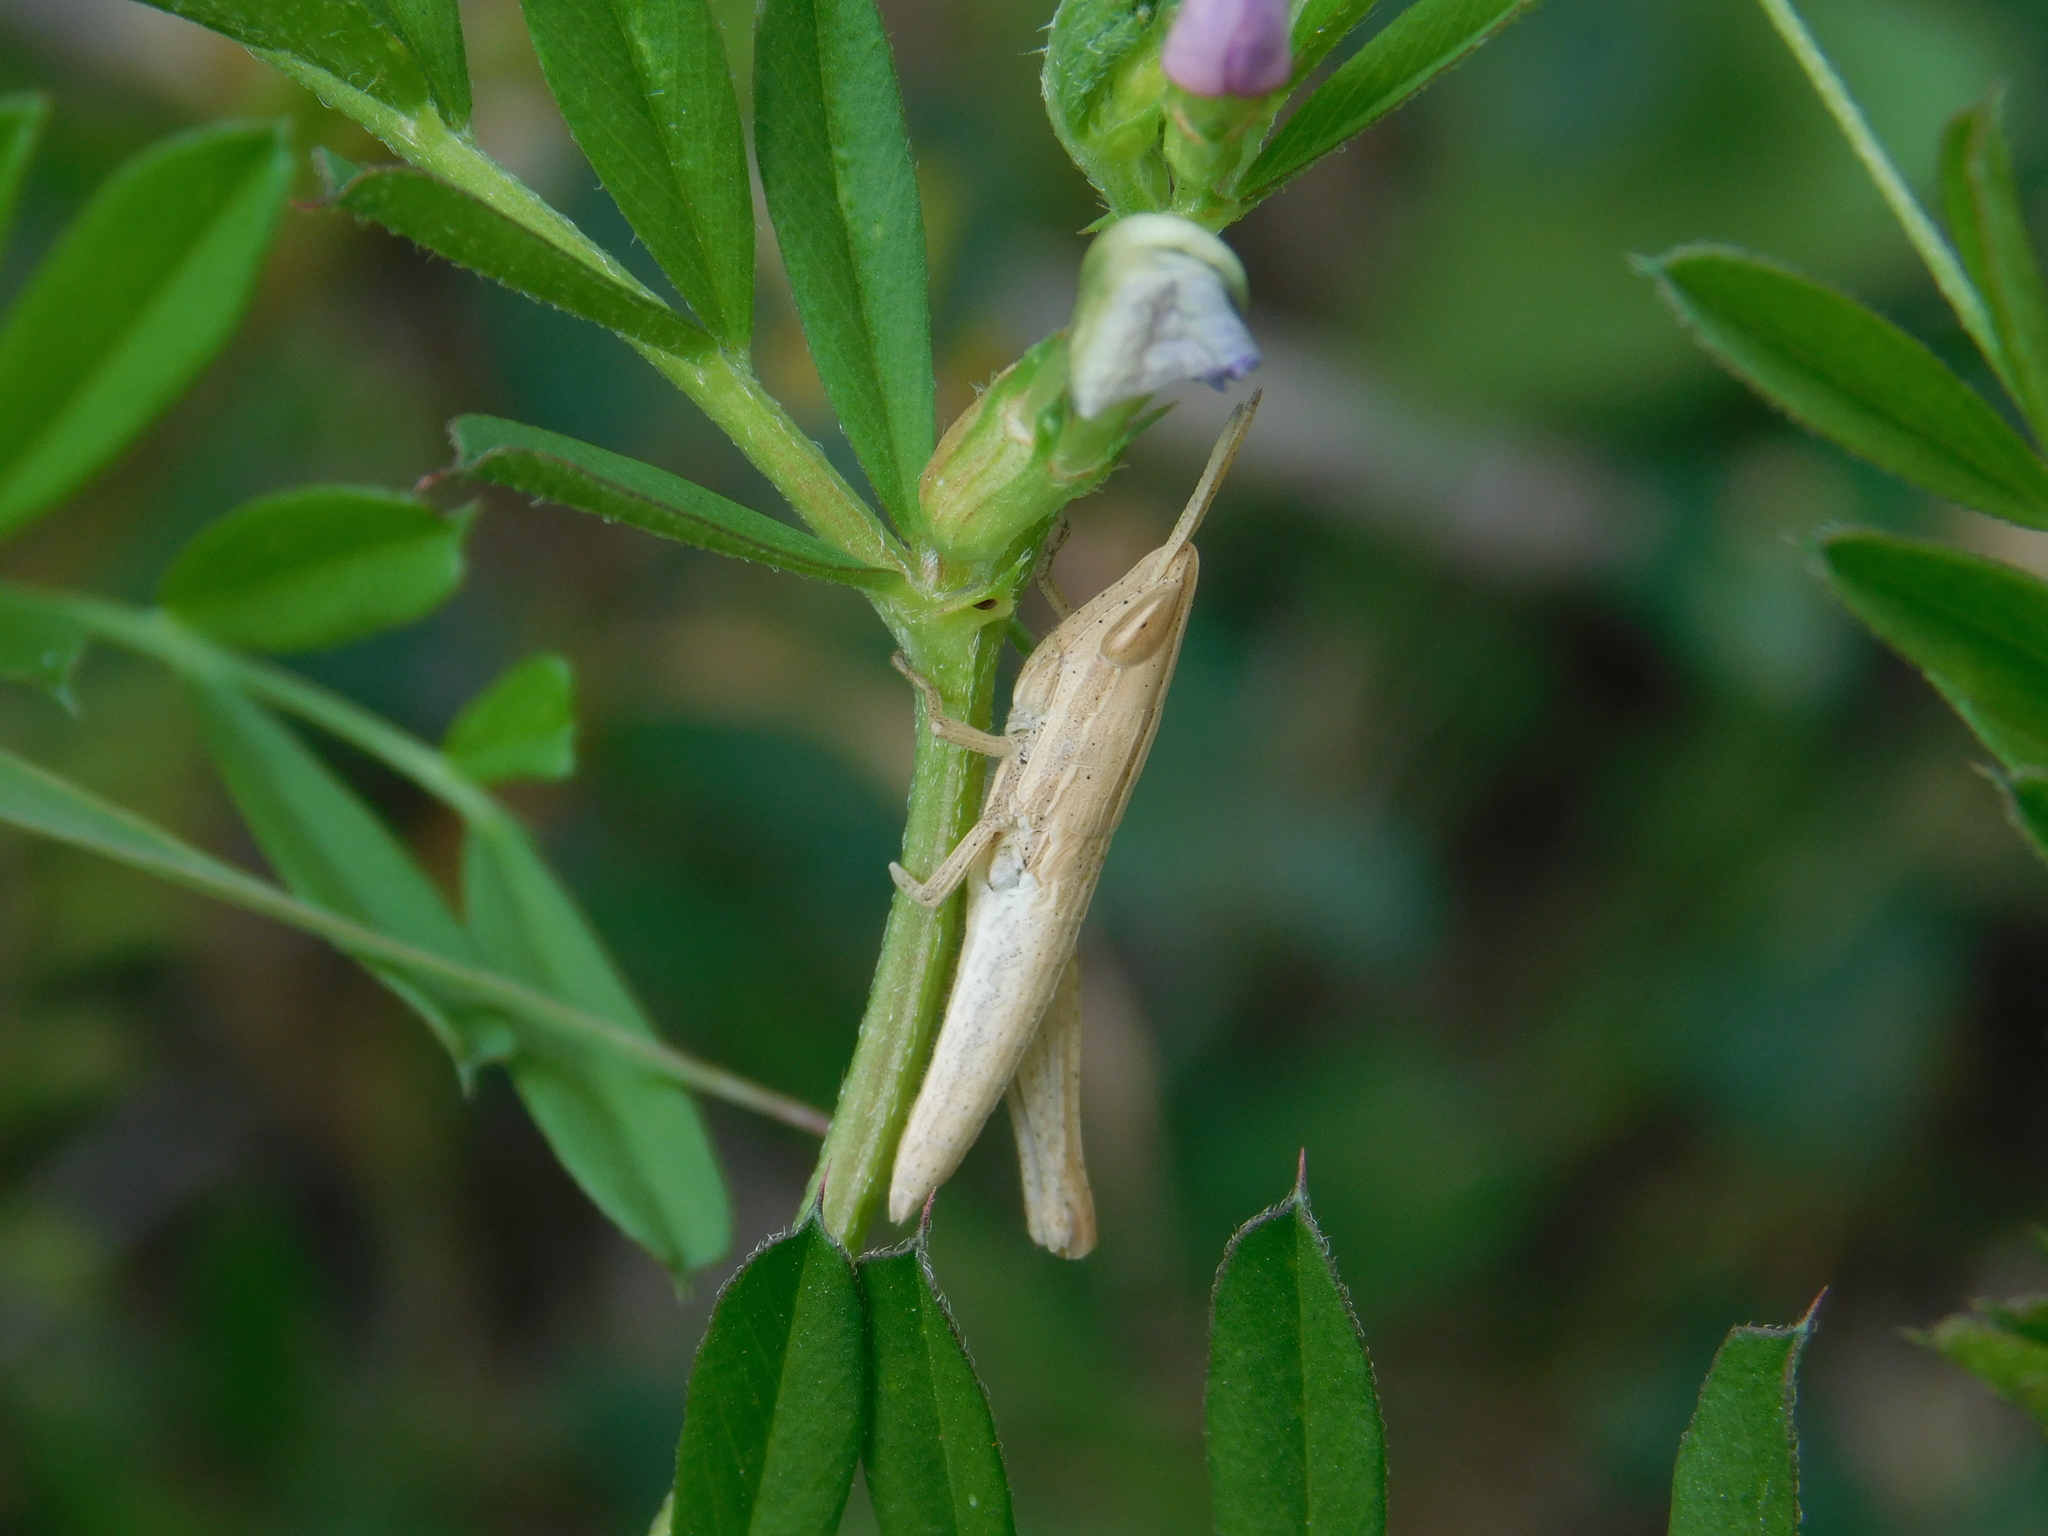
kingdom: Animalia
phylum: Arthropoda
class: Insecta
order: Orthoptera
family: Acrididae
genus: Sinipta
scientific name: Sinipta dalmani
